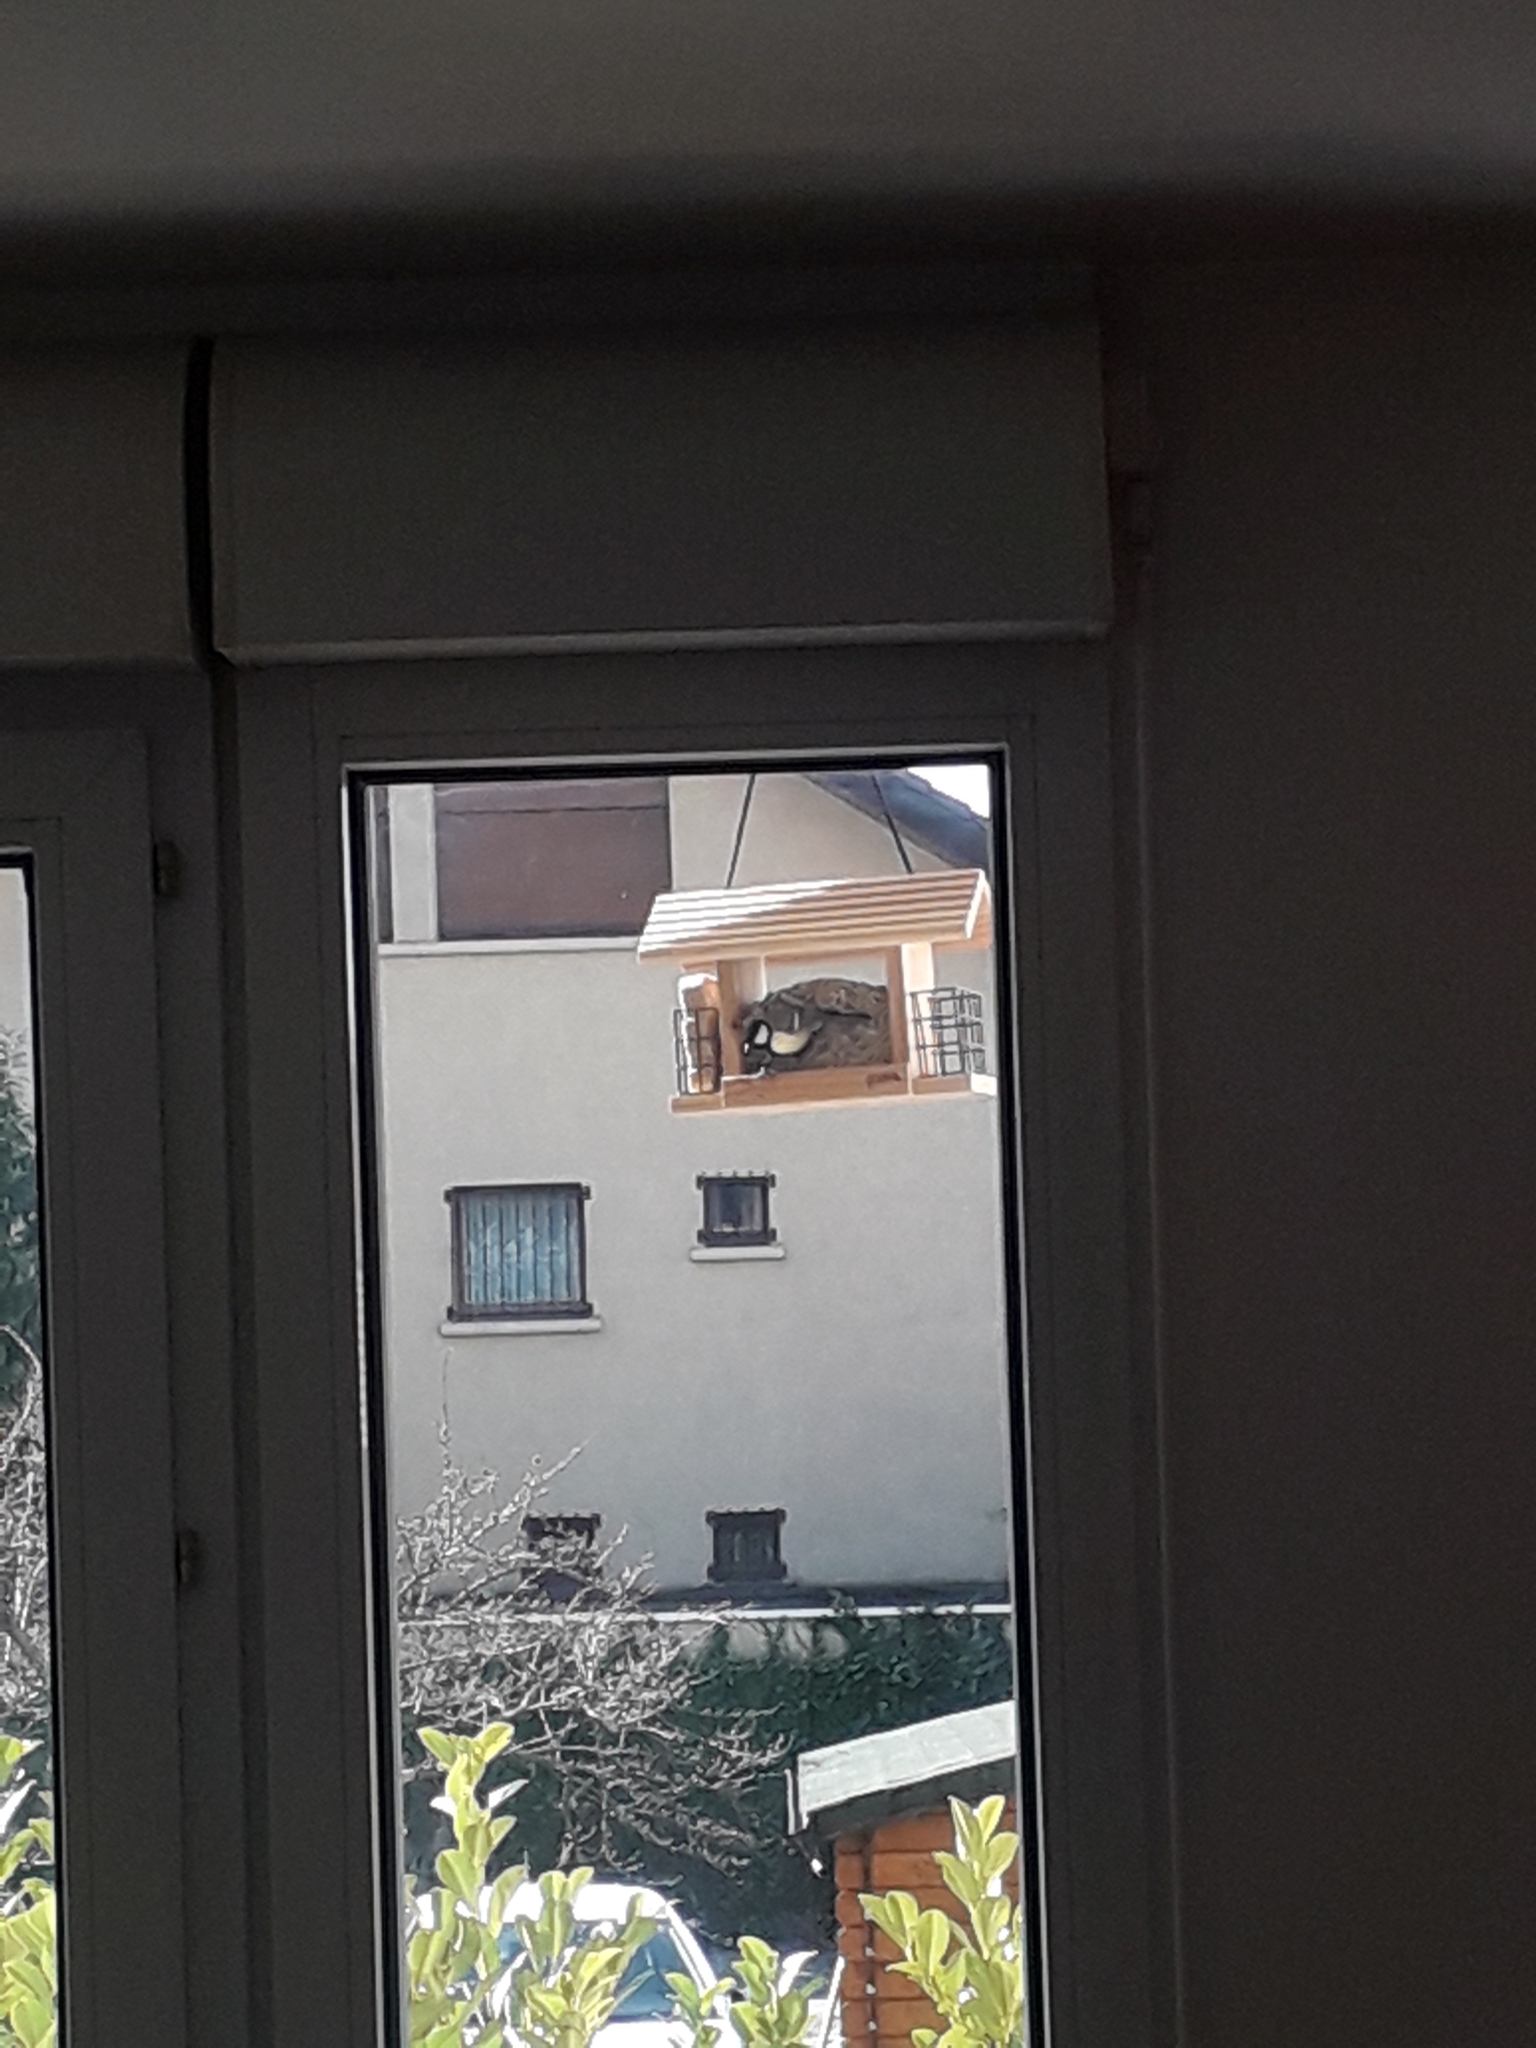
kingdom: Animalia
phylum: Chordata
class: Aves
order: Passeriformes
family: Paridae
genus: Parus
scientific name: Parus major
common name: Great tit
